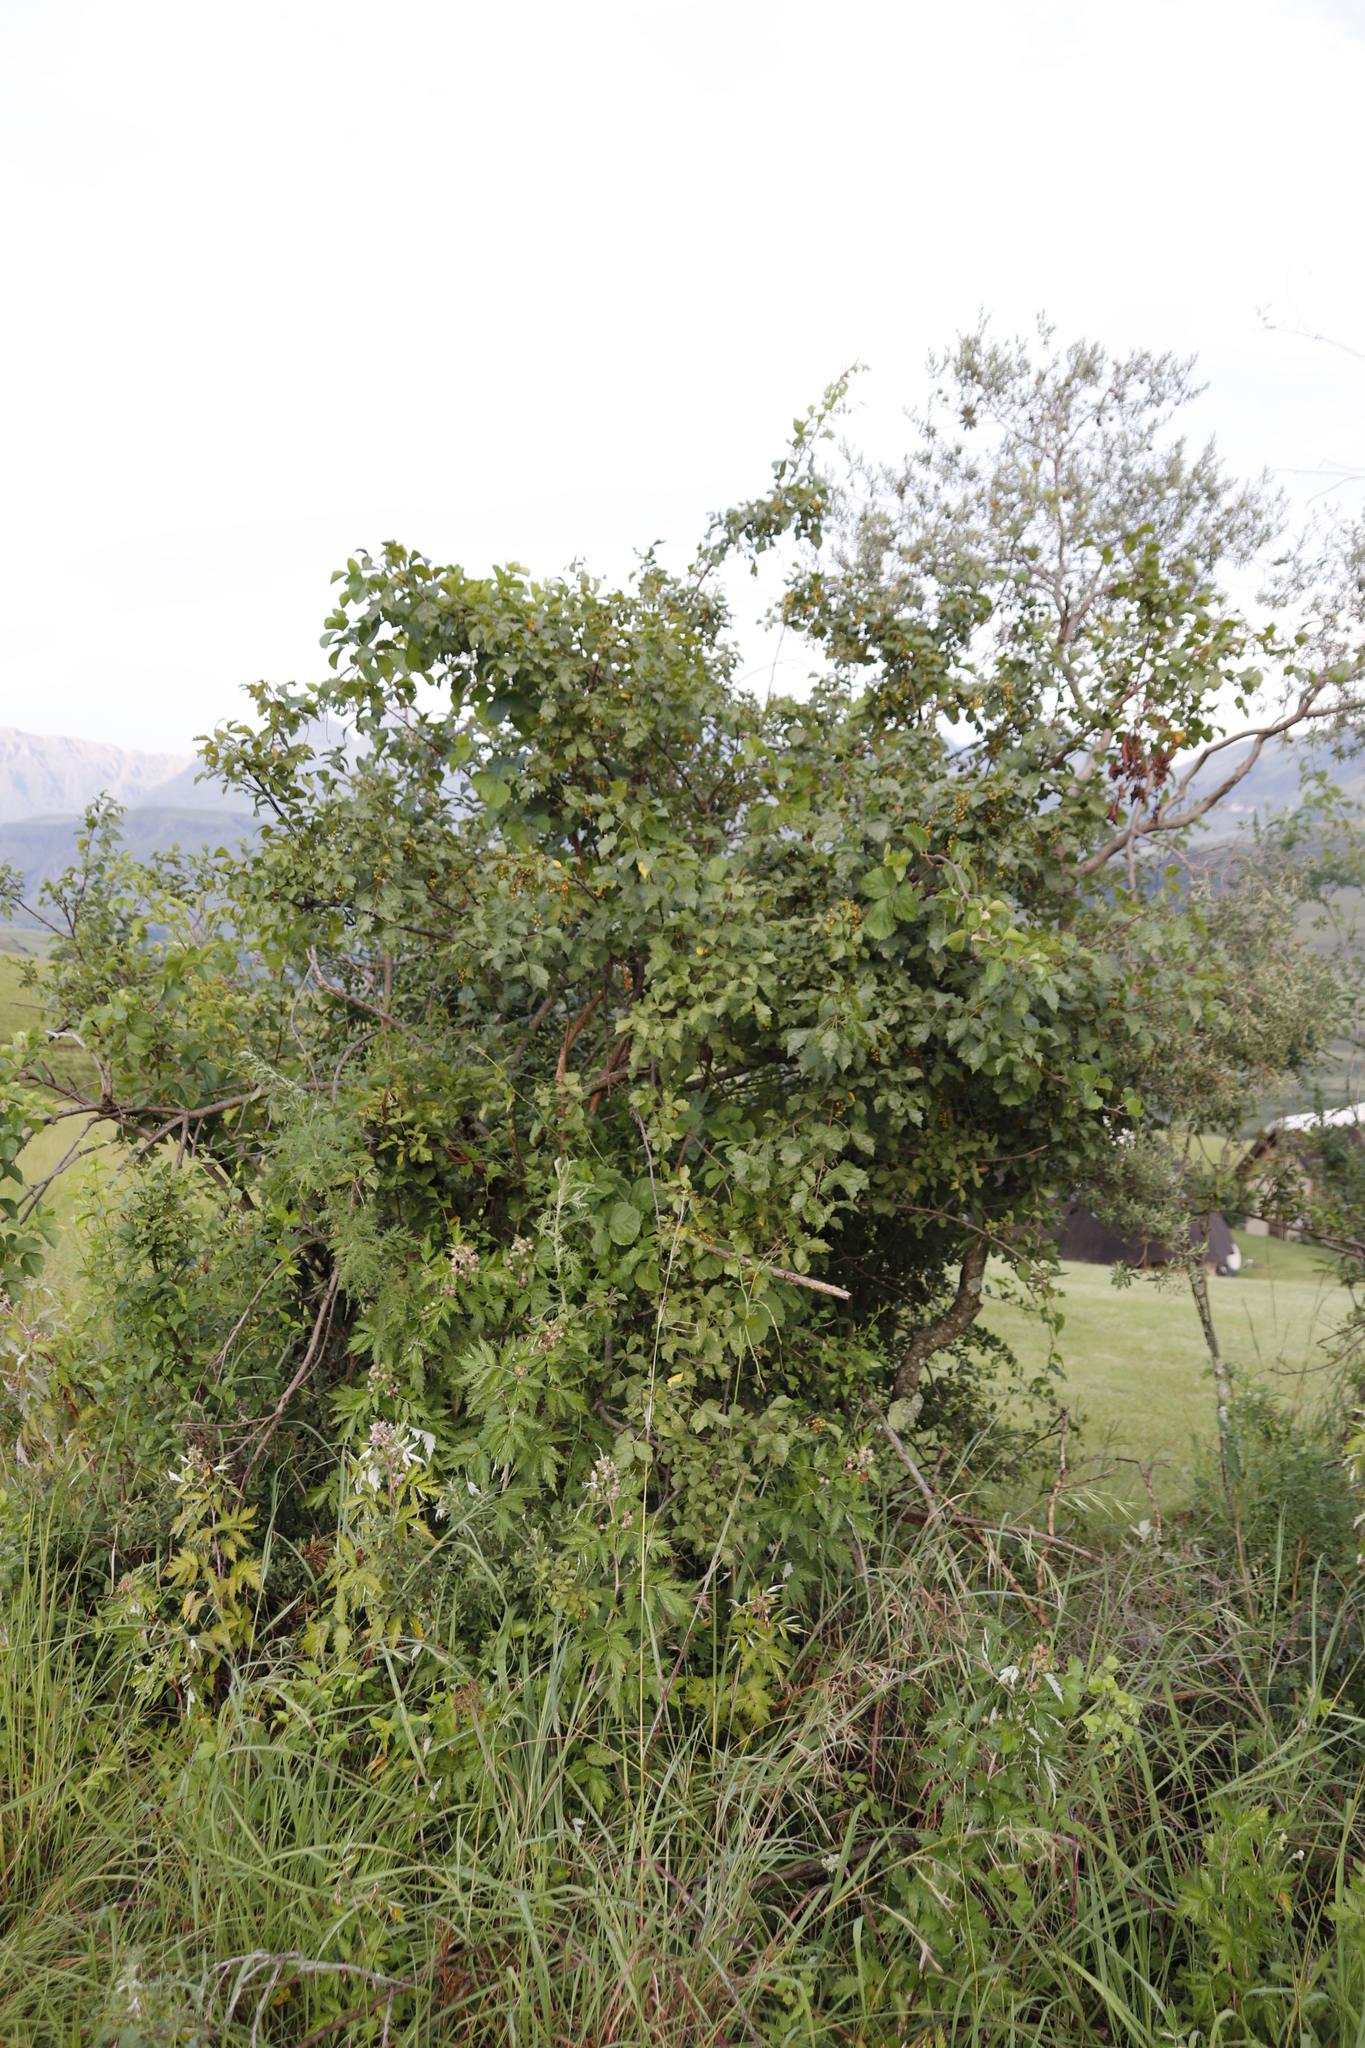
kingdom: Plantae
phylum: Tracheophyta
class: Magnoliopsida
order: Sapindales
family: Anacardiaceae
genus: Searsia
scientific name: Searsia dentata
